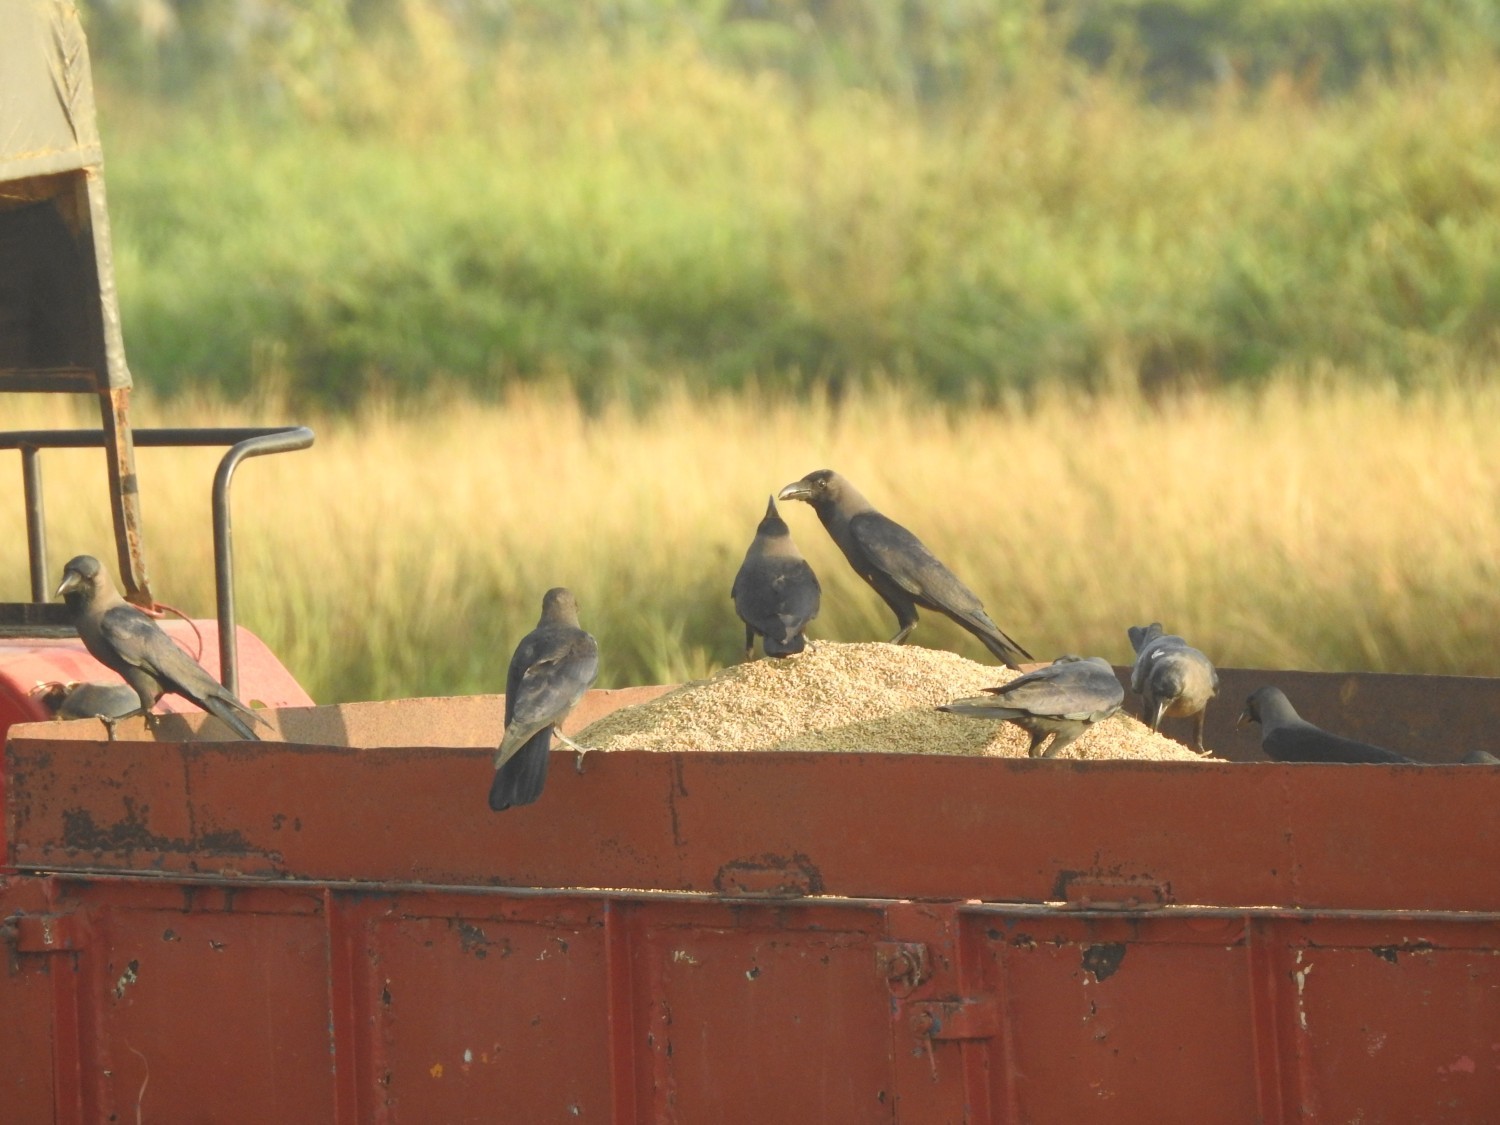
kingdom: Animalia
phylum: Chordata
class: Aves
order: Passeriformes
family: Corvidae
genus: Corvus
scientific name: Corvus splendens
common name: House crow
